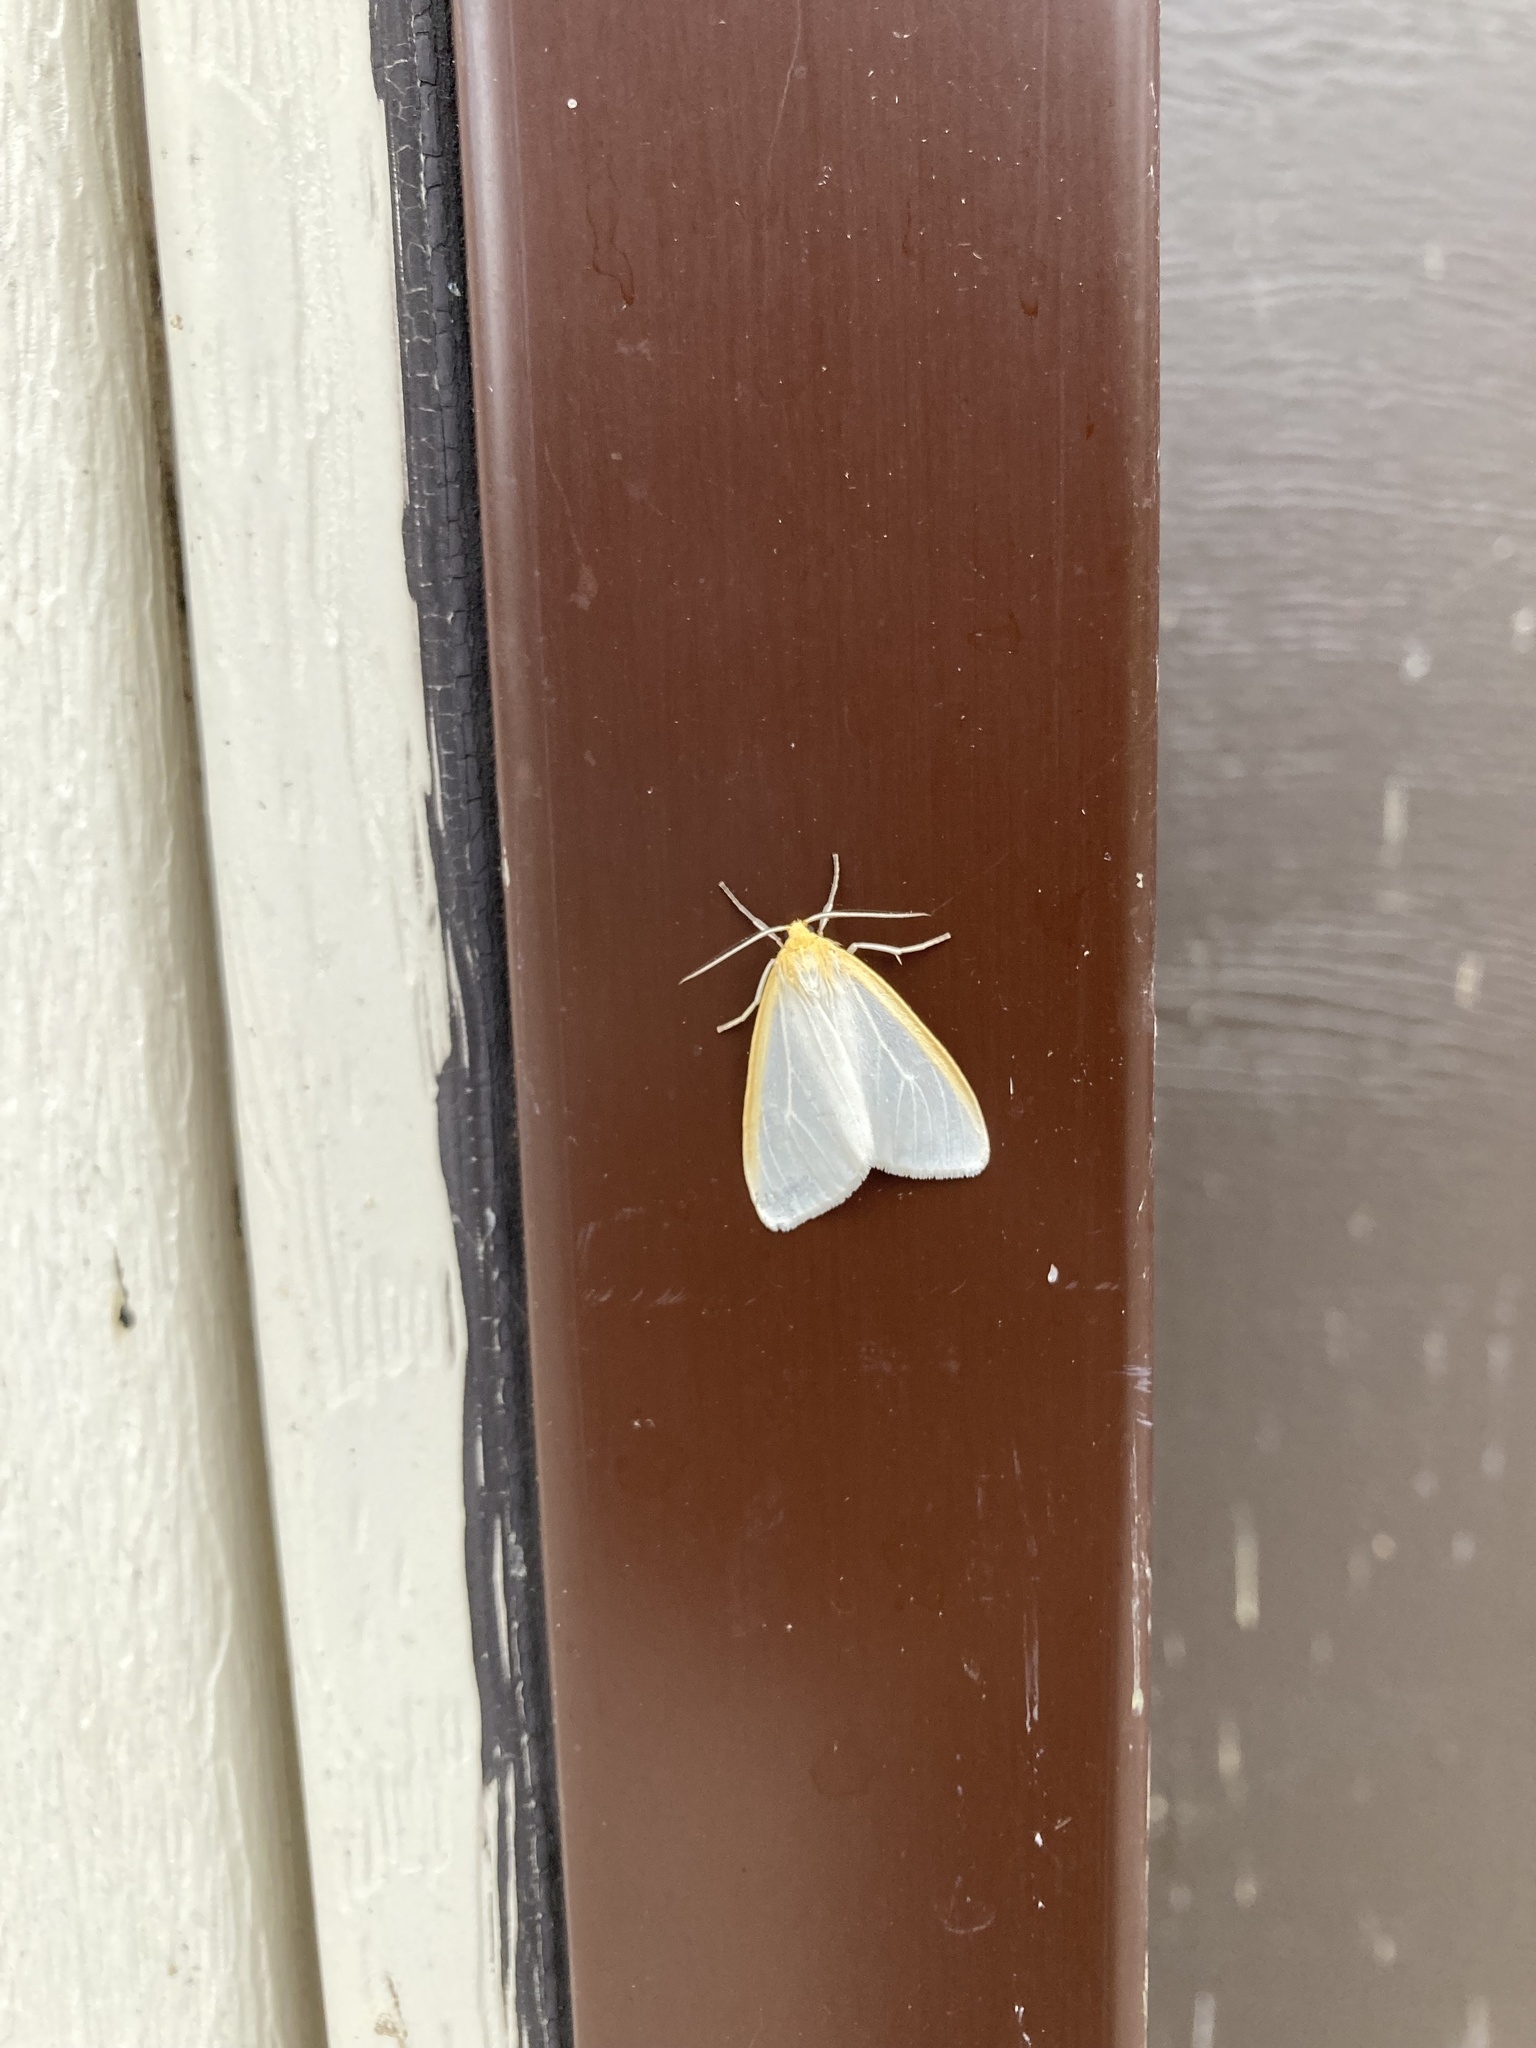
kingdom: Animalia
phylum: Arthropoda
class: Insecta
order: Lepidoptera
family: Erebidae
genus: Cycnia
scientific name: Cycnia tenera
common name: Delicate cycnia moth
